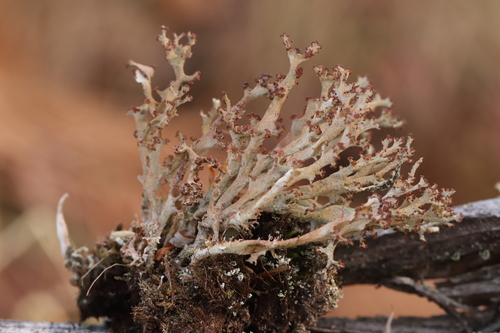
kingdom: Fungi
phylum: Ascomycota
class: Lecanoromycetes
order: Lecanorales
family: Cladoniaceae
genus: Cladonia
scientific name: Cladonia crispata
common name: Organ-pipe lichen
